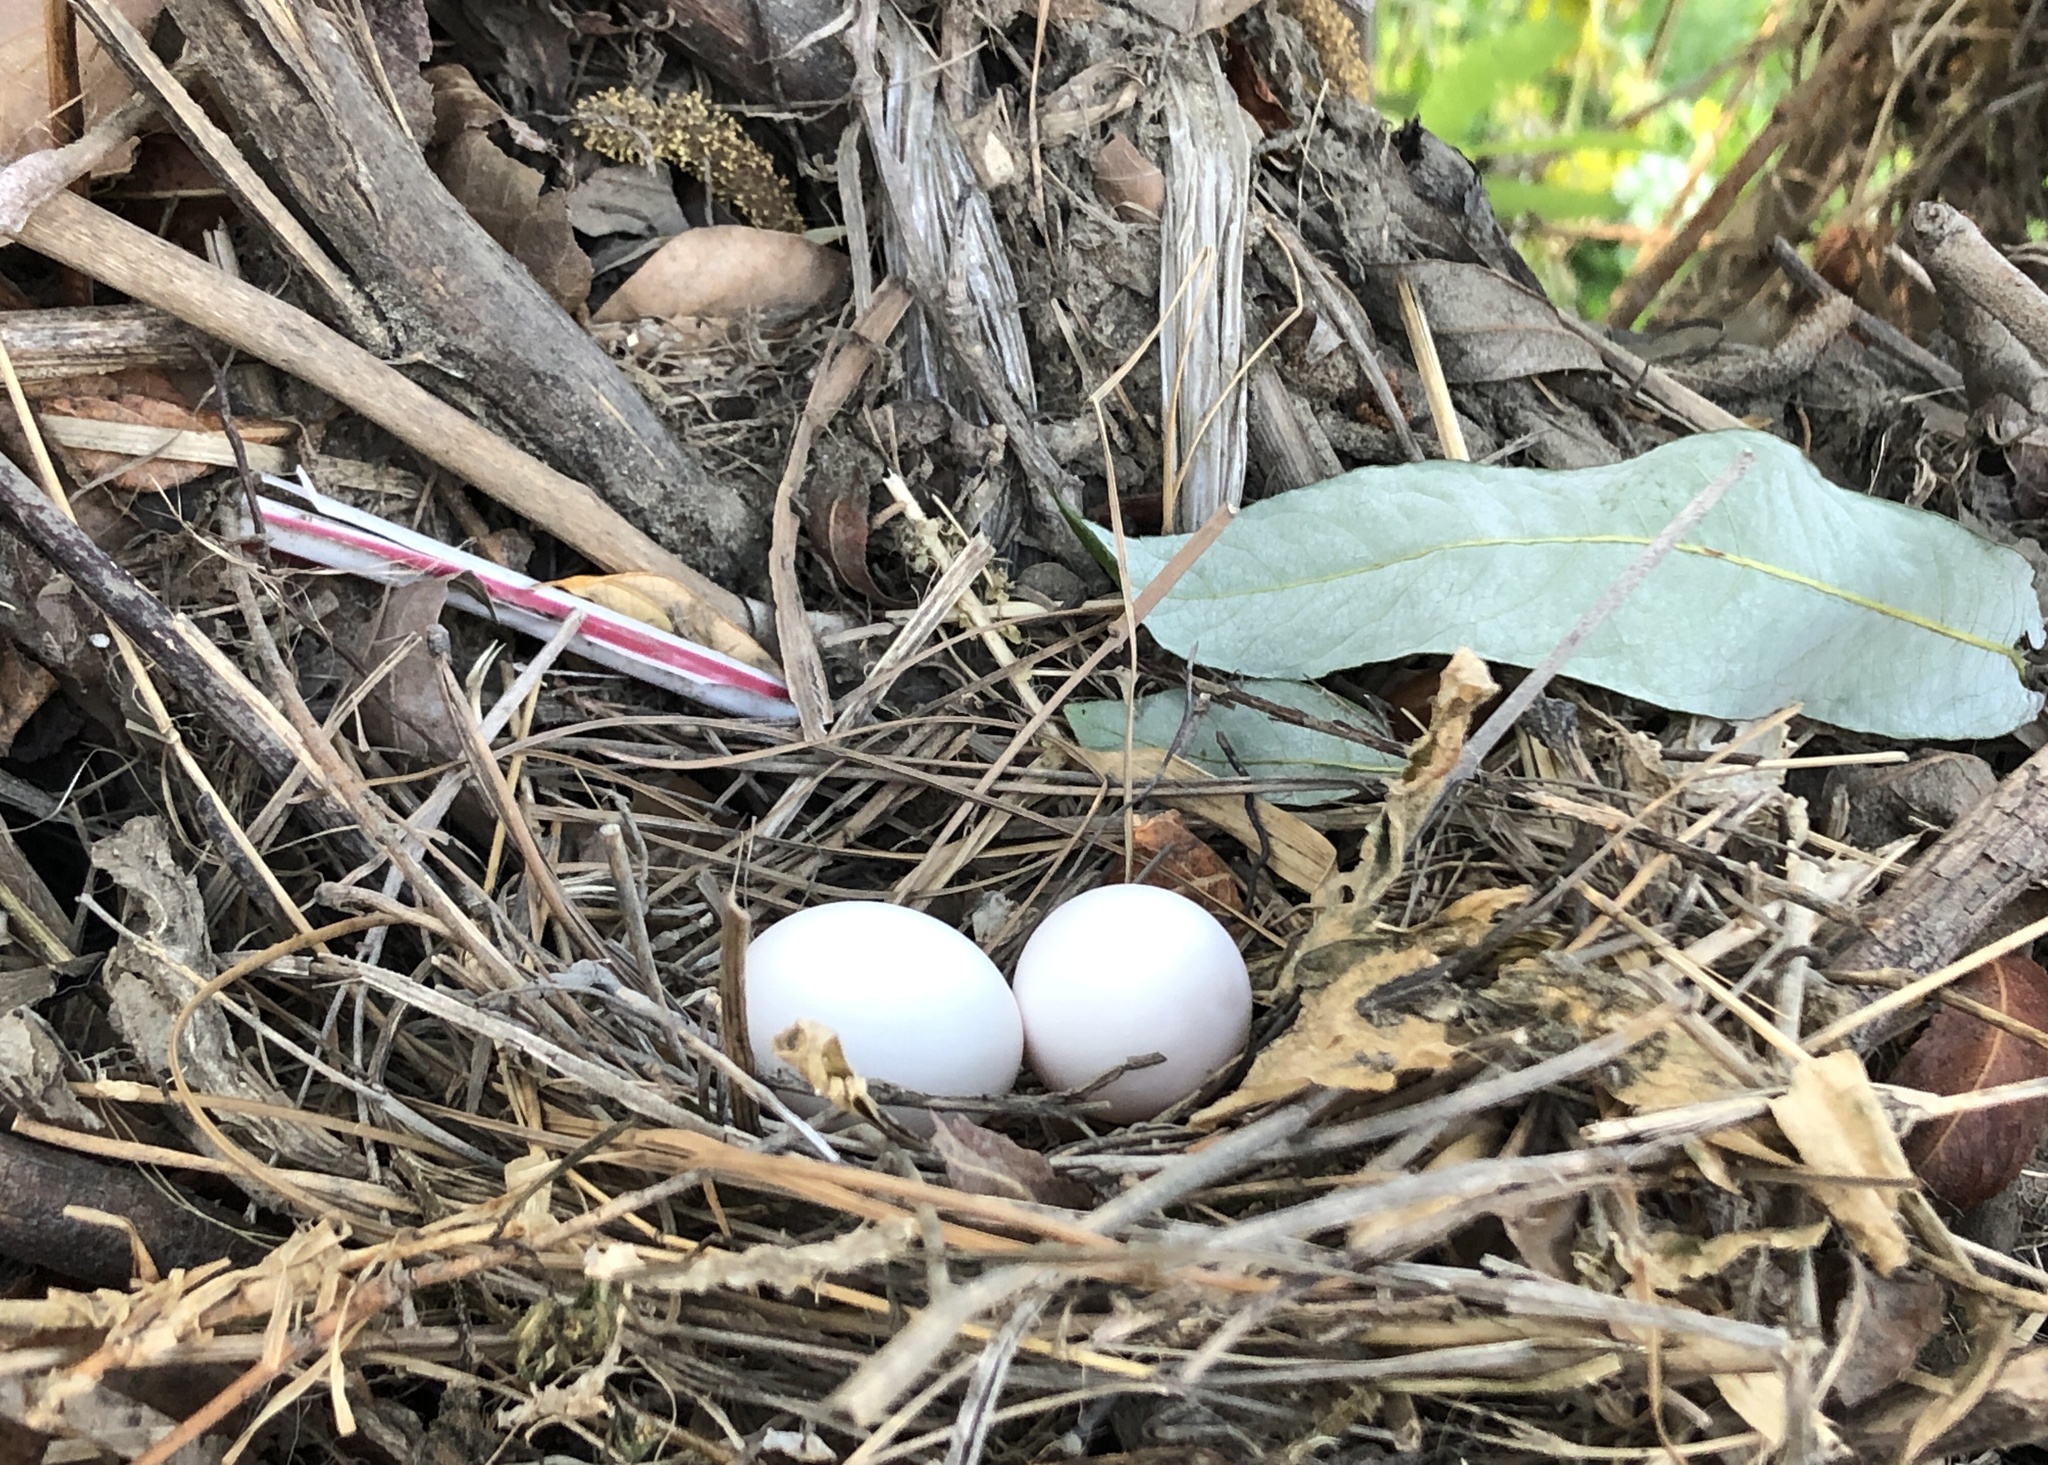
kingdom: Animalia
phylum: Chordata
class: Aves
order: Columbiformes
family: Columbidae
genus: Zenaida
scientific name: Zenaida macroura
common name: Mourning dove
